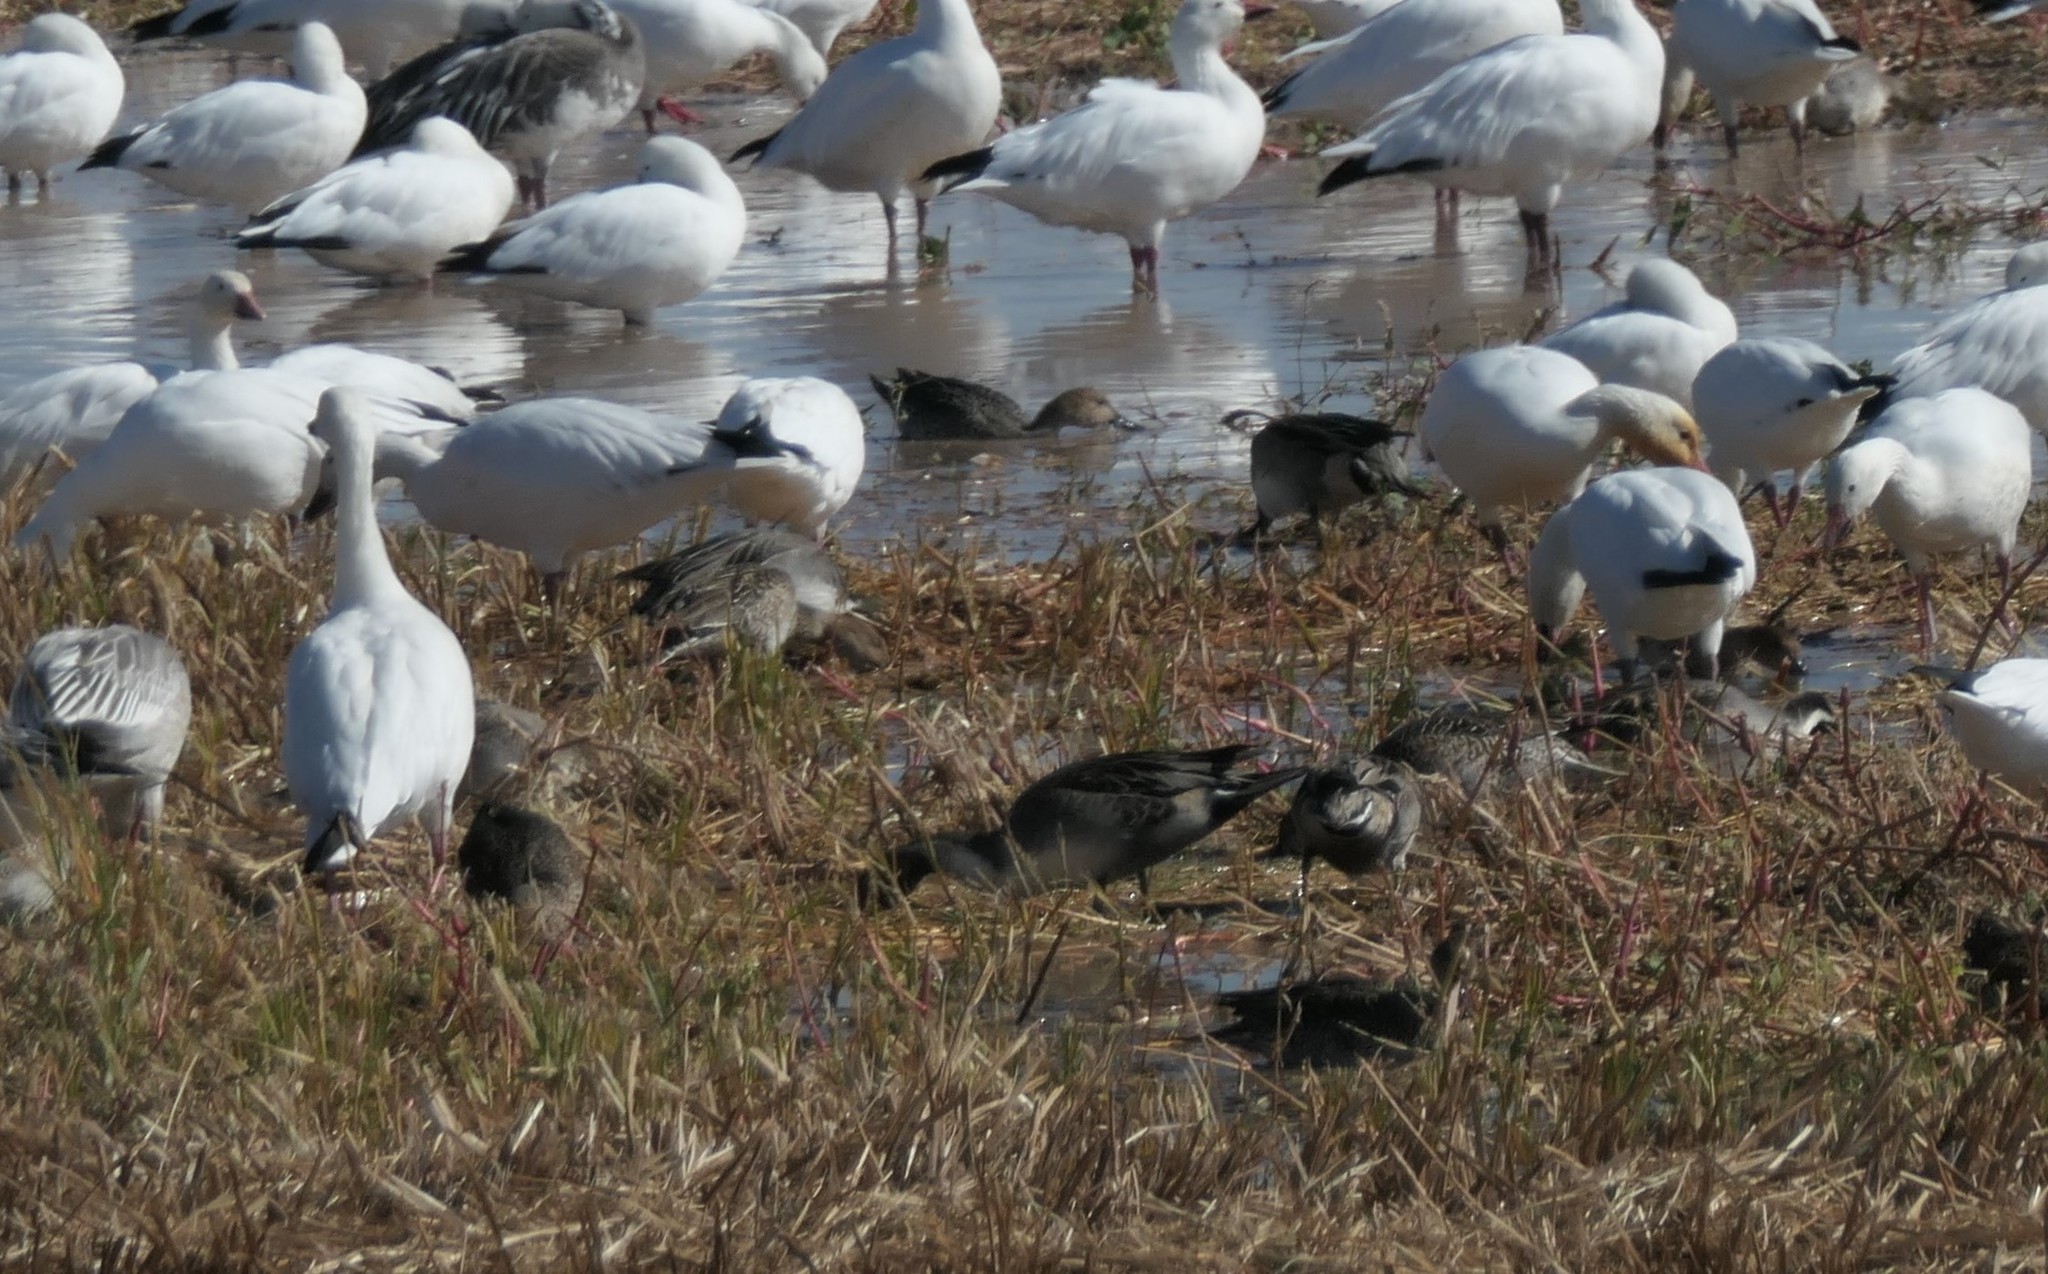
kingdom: Animalia
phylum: Chordata
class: Aves
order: Anseriformes
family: Anatidae
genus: Anas
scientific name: Anas acuta
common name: Northern pintail
